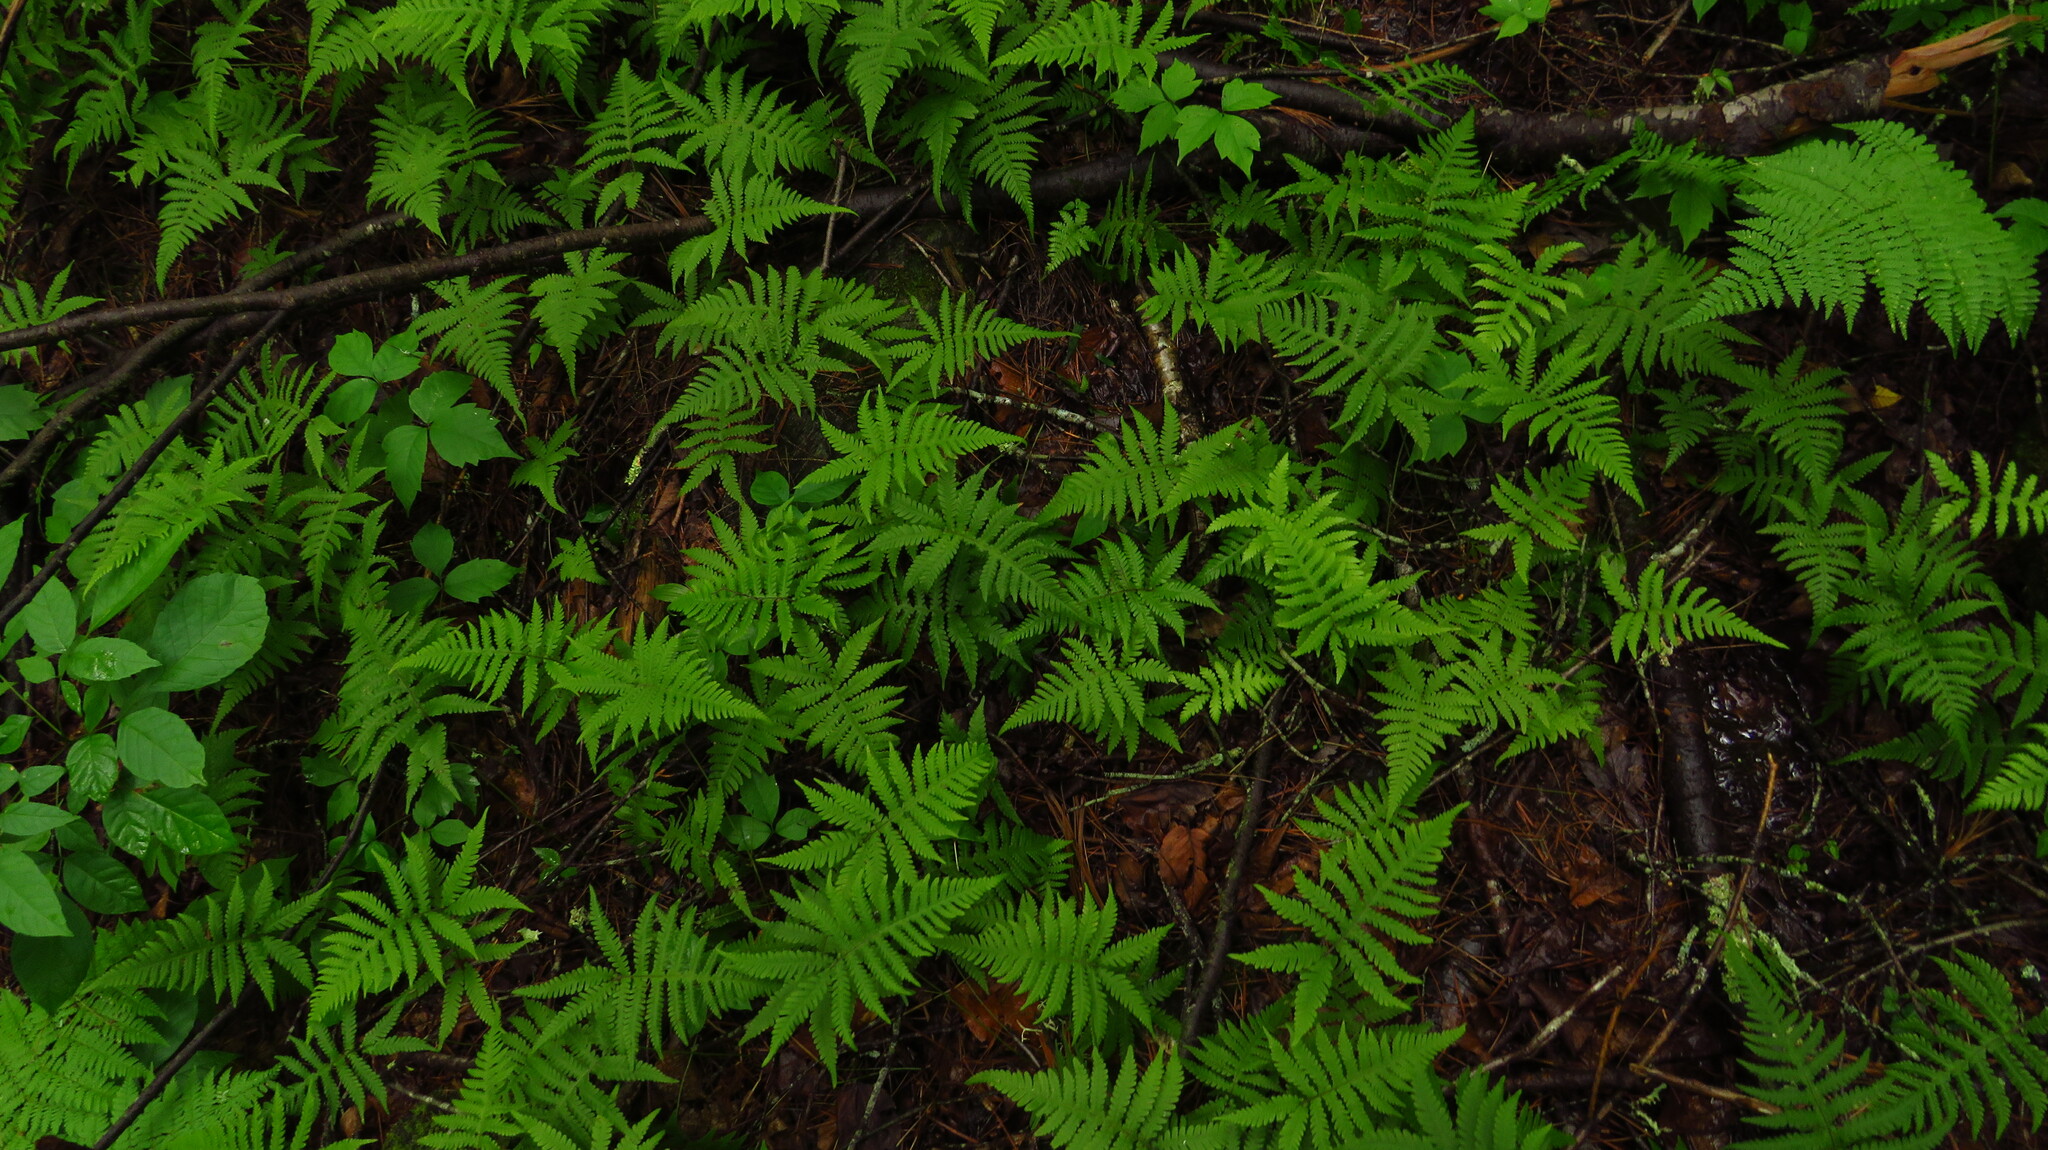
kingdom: Plantae
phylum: Tracheophyta
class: Polypodiopsida
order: Polypodiales
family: Thelypteridaceae
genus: Phegopteris
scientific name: Phegopteris connectilis
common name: Beech fern
